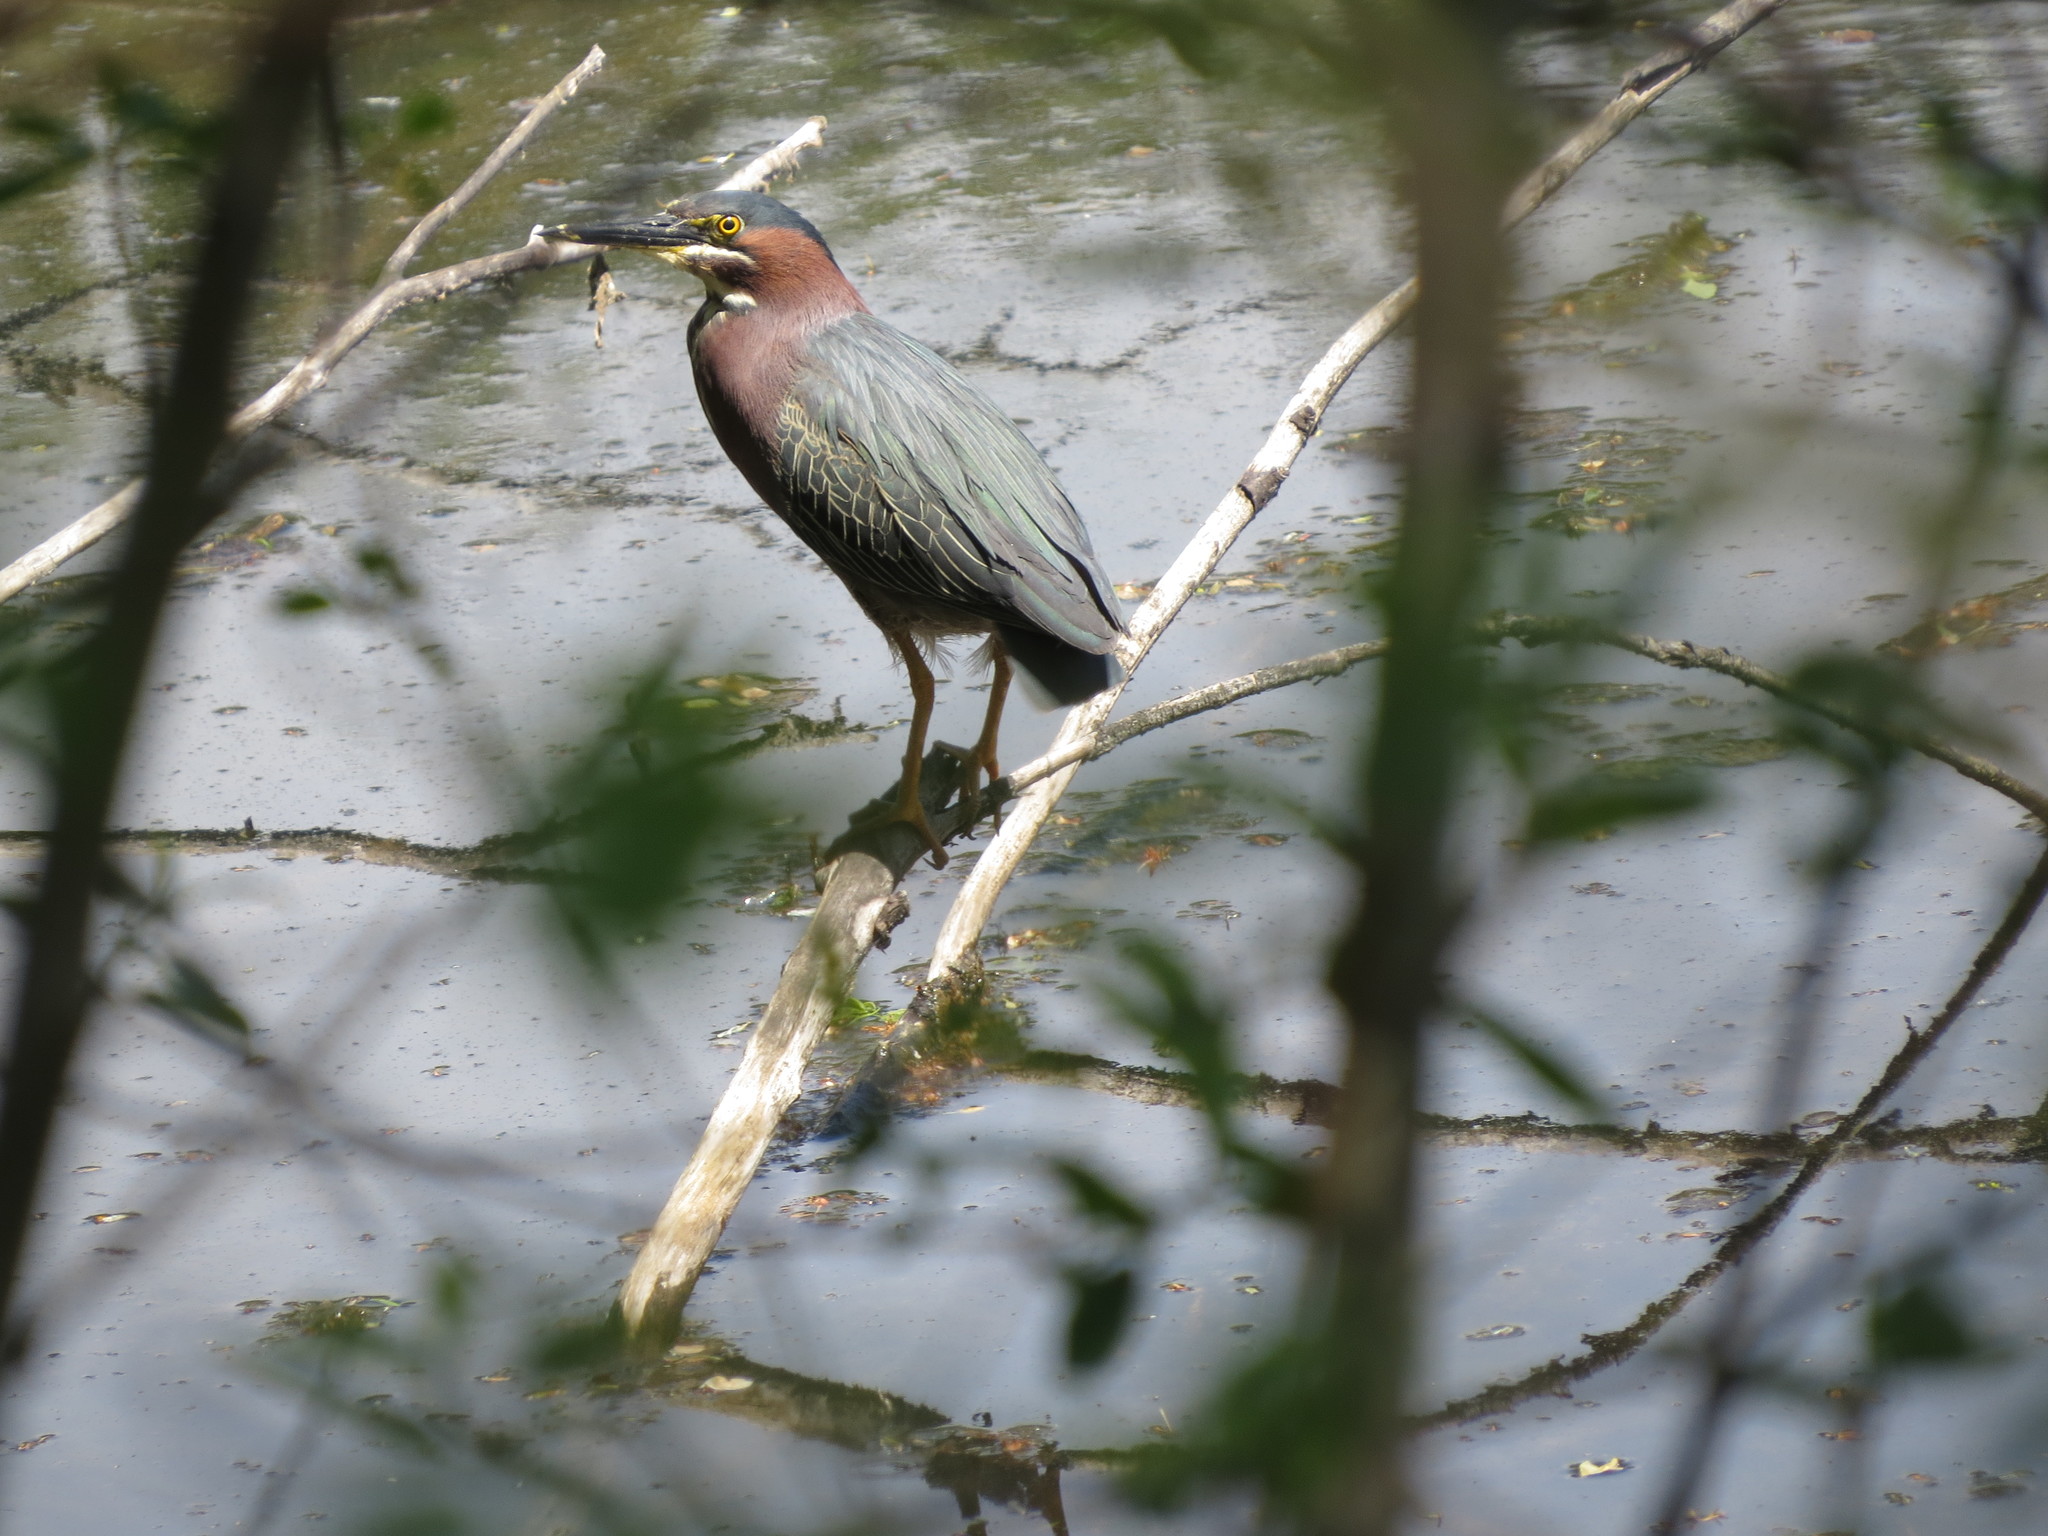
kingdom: Animalia
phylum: Chordata
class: Aves
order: Pelecaniformes
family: Ardeidae
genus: Butorides
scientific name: Butorides virescens
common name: Green heron
